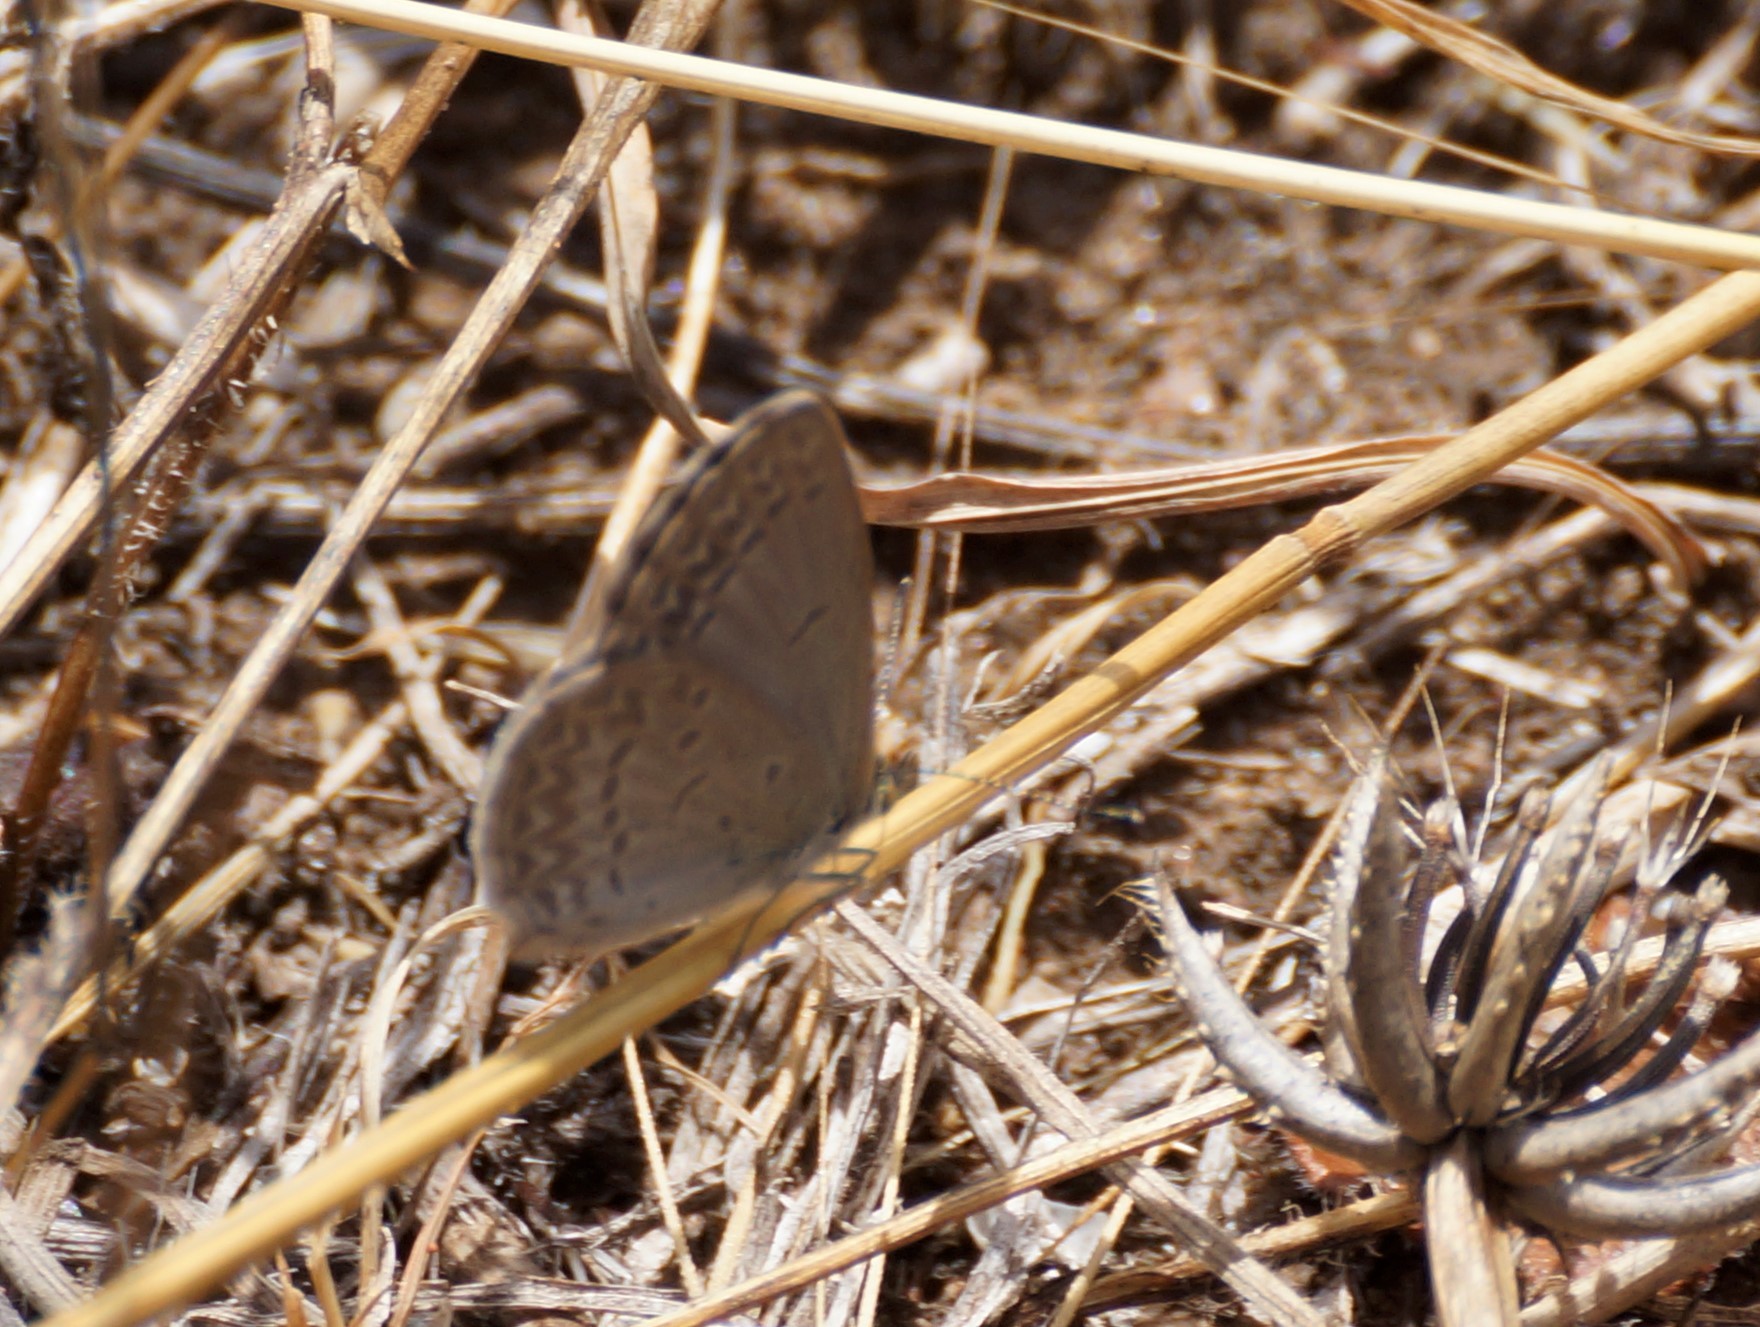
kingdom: Animalia
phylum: Arthropoda
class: Insecta
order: Lepidoptera
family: Lycaenidae
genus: Zizina
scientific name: Zizina labradus
